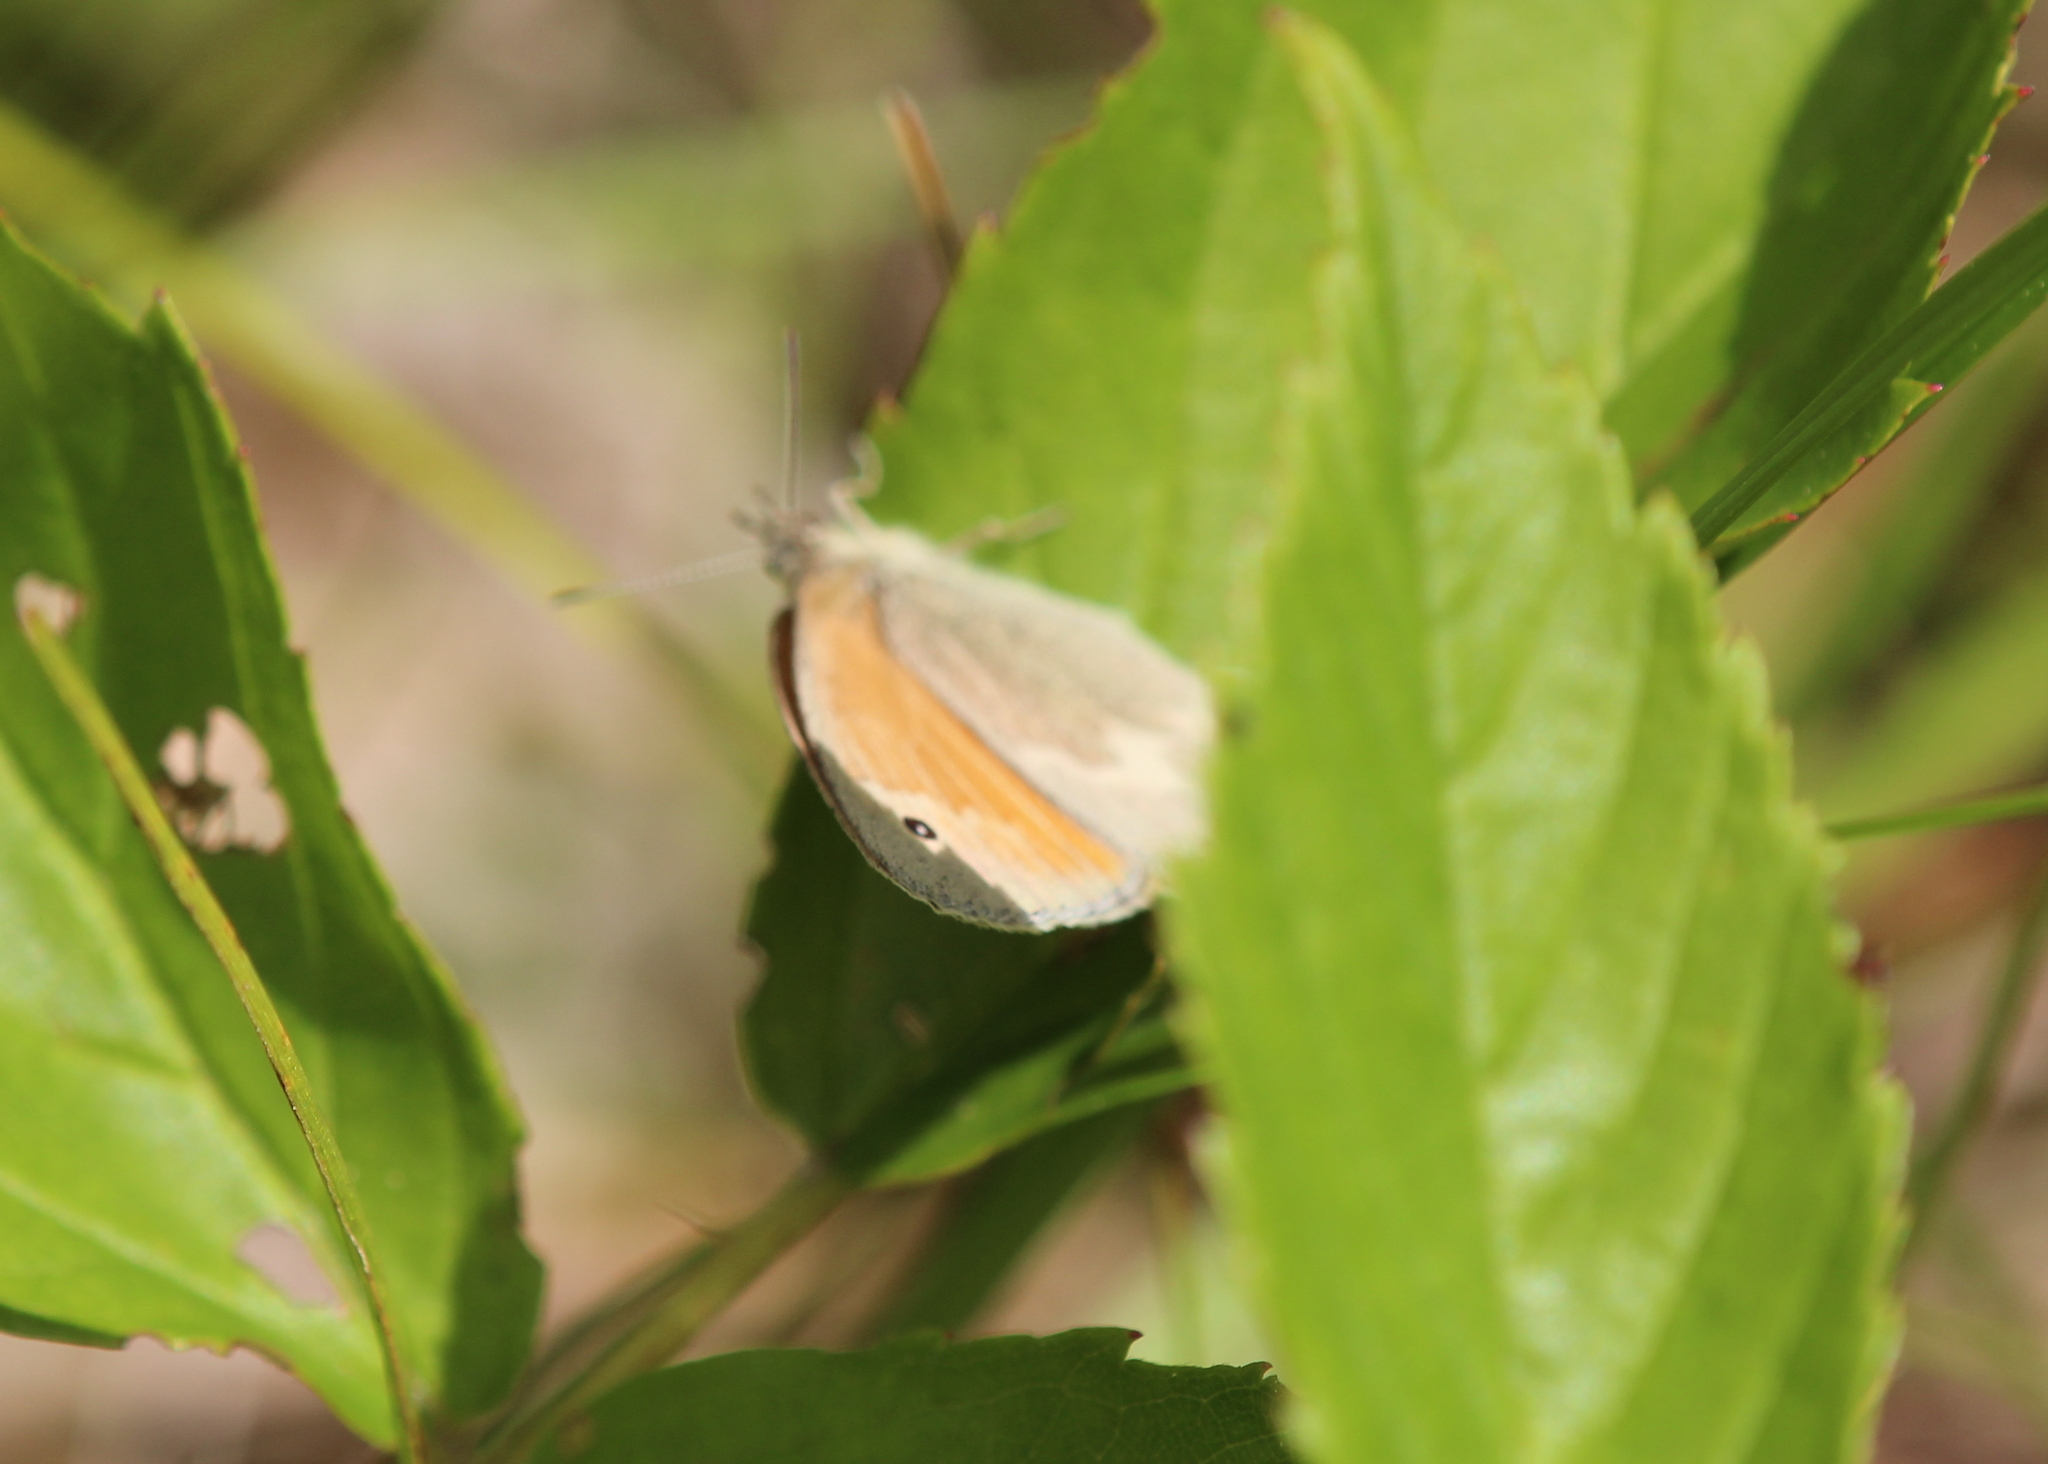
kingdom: Animalia
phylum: Arthropoda
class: Insecta
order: Lepidoptera
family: Nymphalidae
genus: Coenonympha
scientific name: Coenonympha california
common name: Common ringlet
